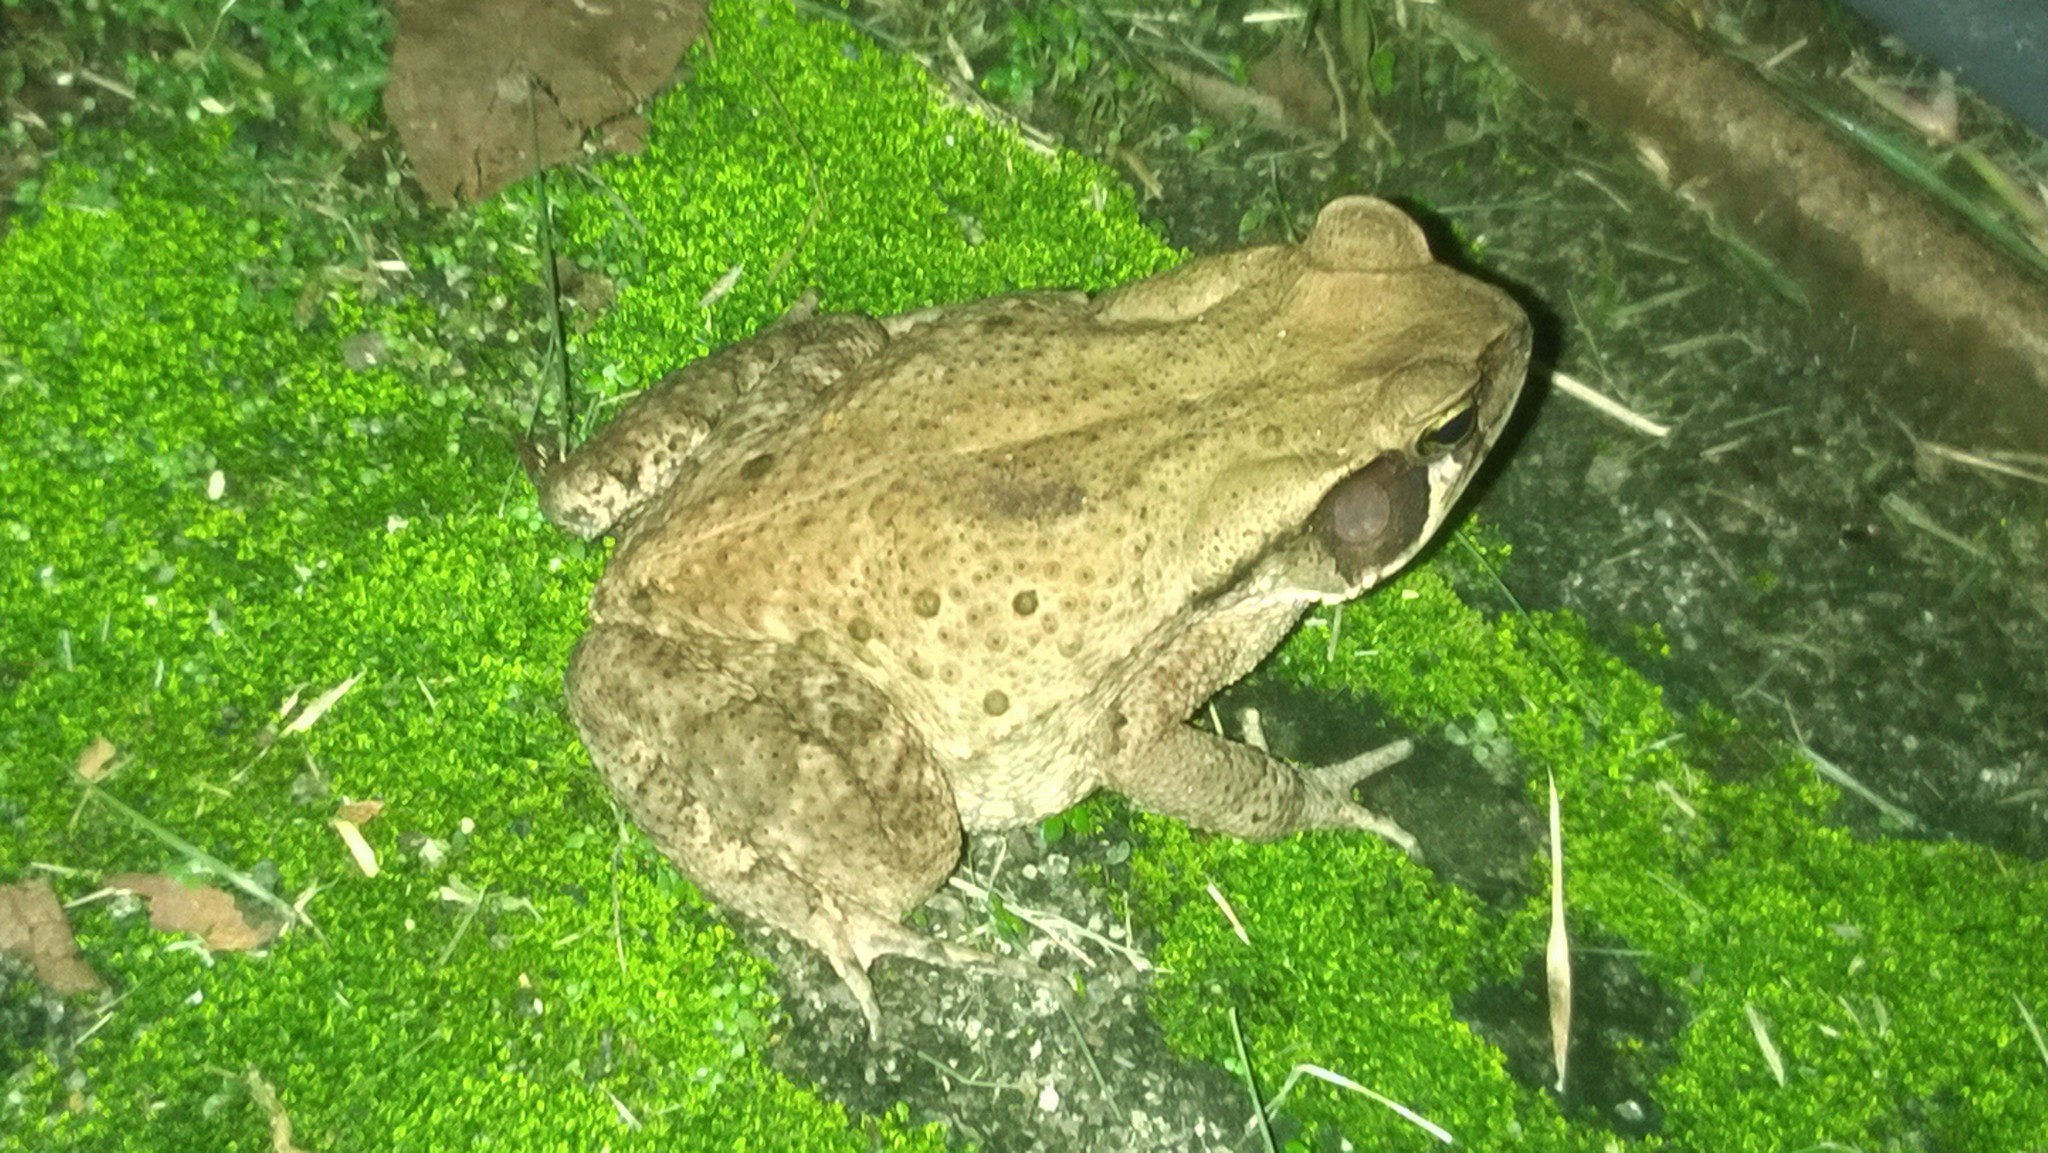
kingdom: Animalia
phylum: Chordata
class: Amphibia
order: Anura
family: Bufonidae
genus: Rhinella
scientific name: Rhinella ornata
